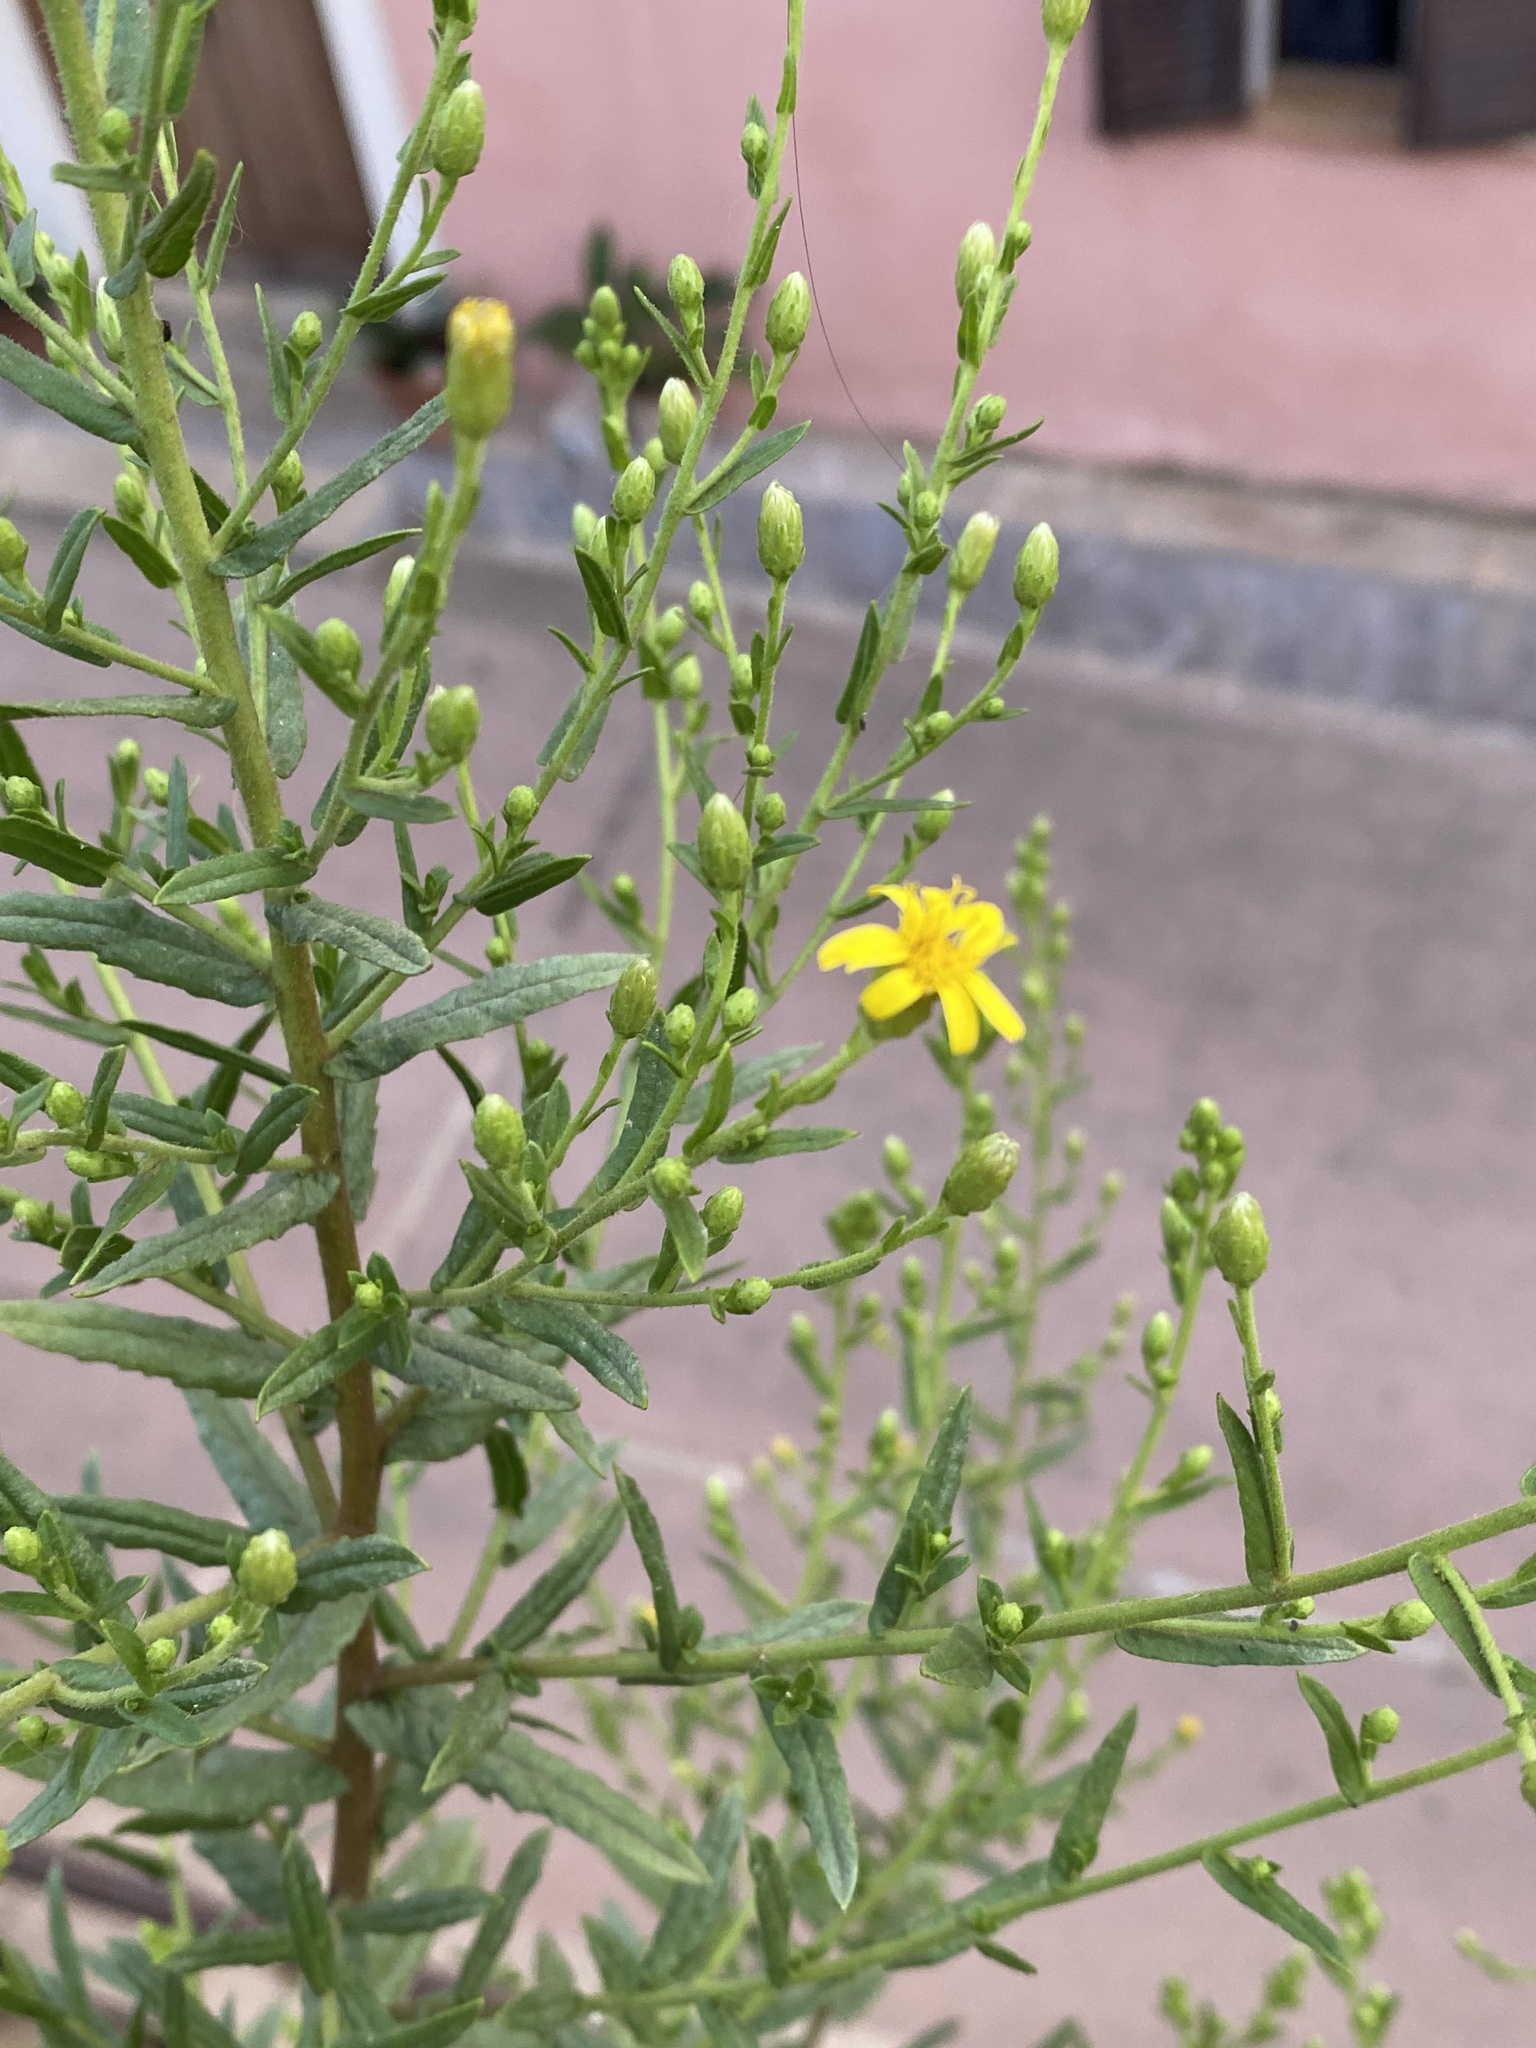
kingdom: Plantae
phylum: Tracheophyta
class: Magnoliopsida
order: Asterales
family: Asteraceae
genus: Dittrichia
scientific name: Dittrichia viscosa
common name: Woody fleabane
